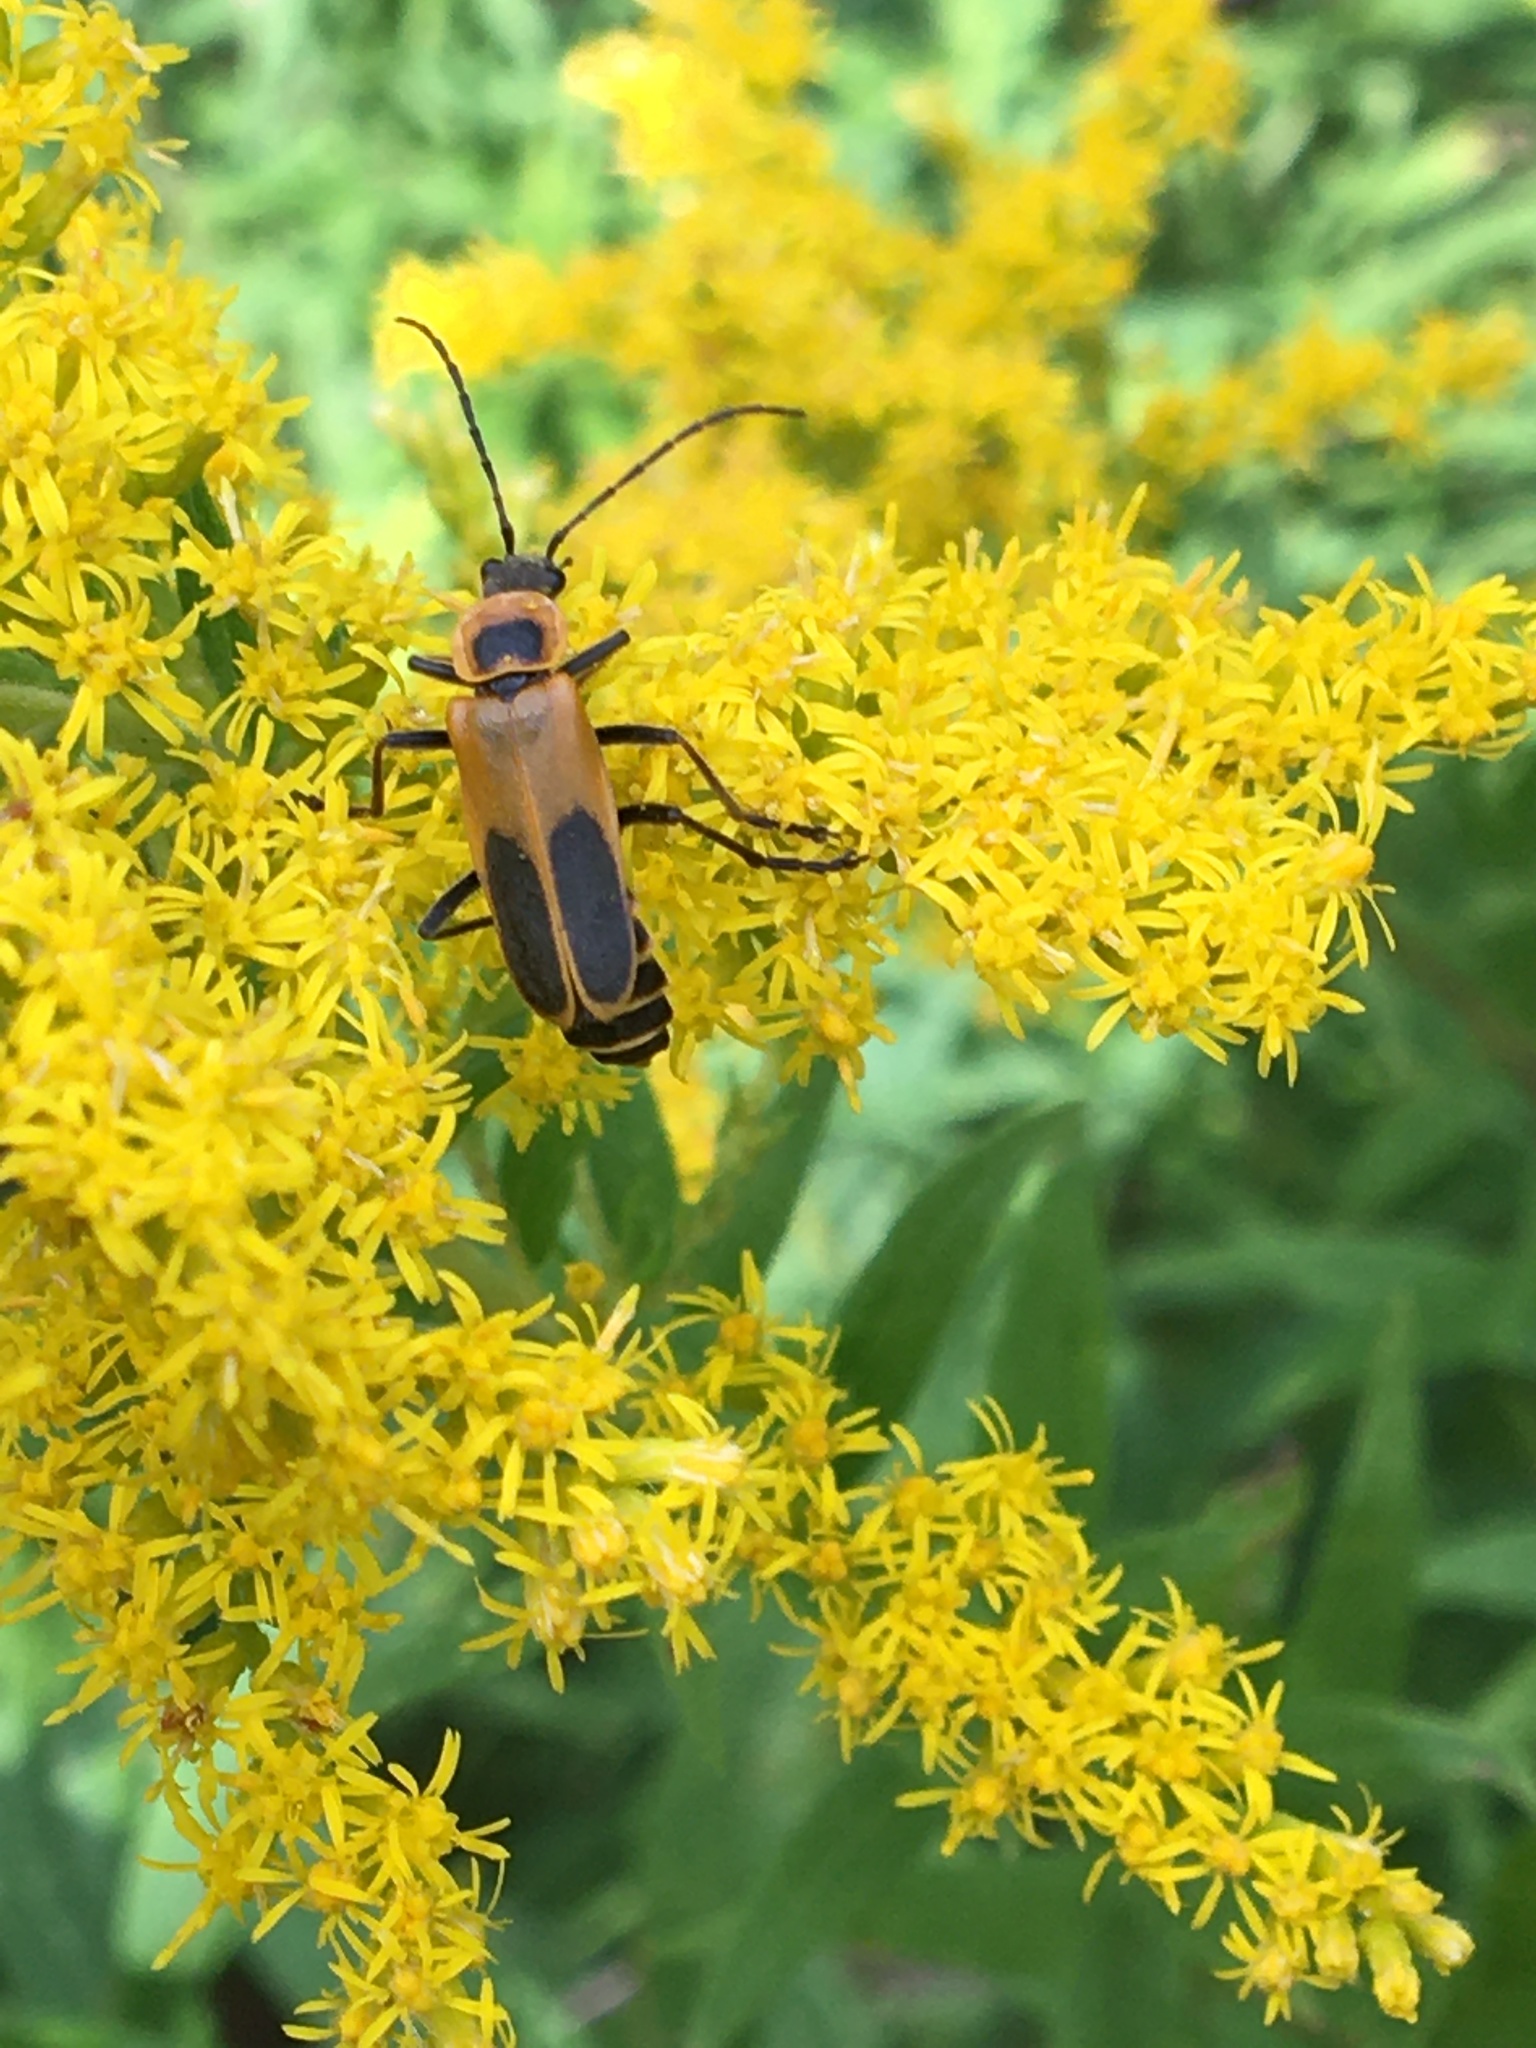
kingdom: Animalia
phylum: Arthropoda
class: Insecta
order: Coleoptera
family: Cantharidae
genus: Chauliognathus
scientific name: Chauliognathus pensylvanicus
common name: Goldenrod soldier beetle
